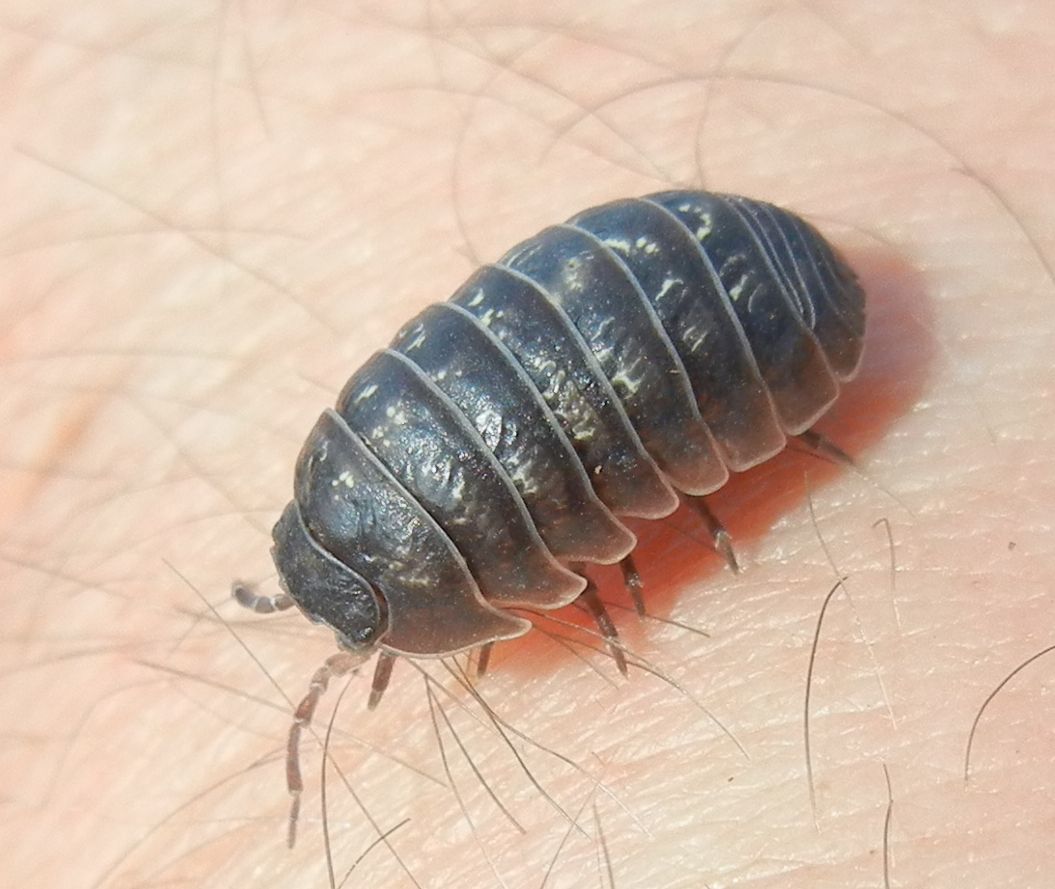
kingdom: Animalia
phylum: Arthropoda
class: Malacostraca
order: Isopoda
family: Armadillidiidae
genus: Armadillidium
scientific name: Armadillidium vulgare
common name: Common pill woodlouse
